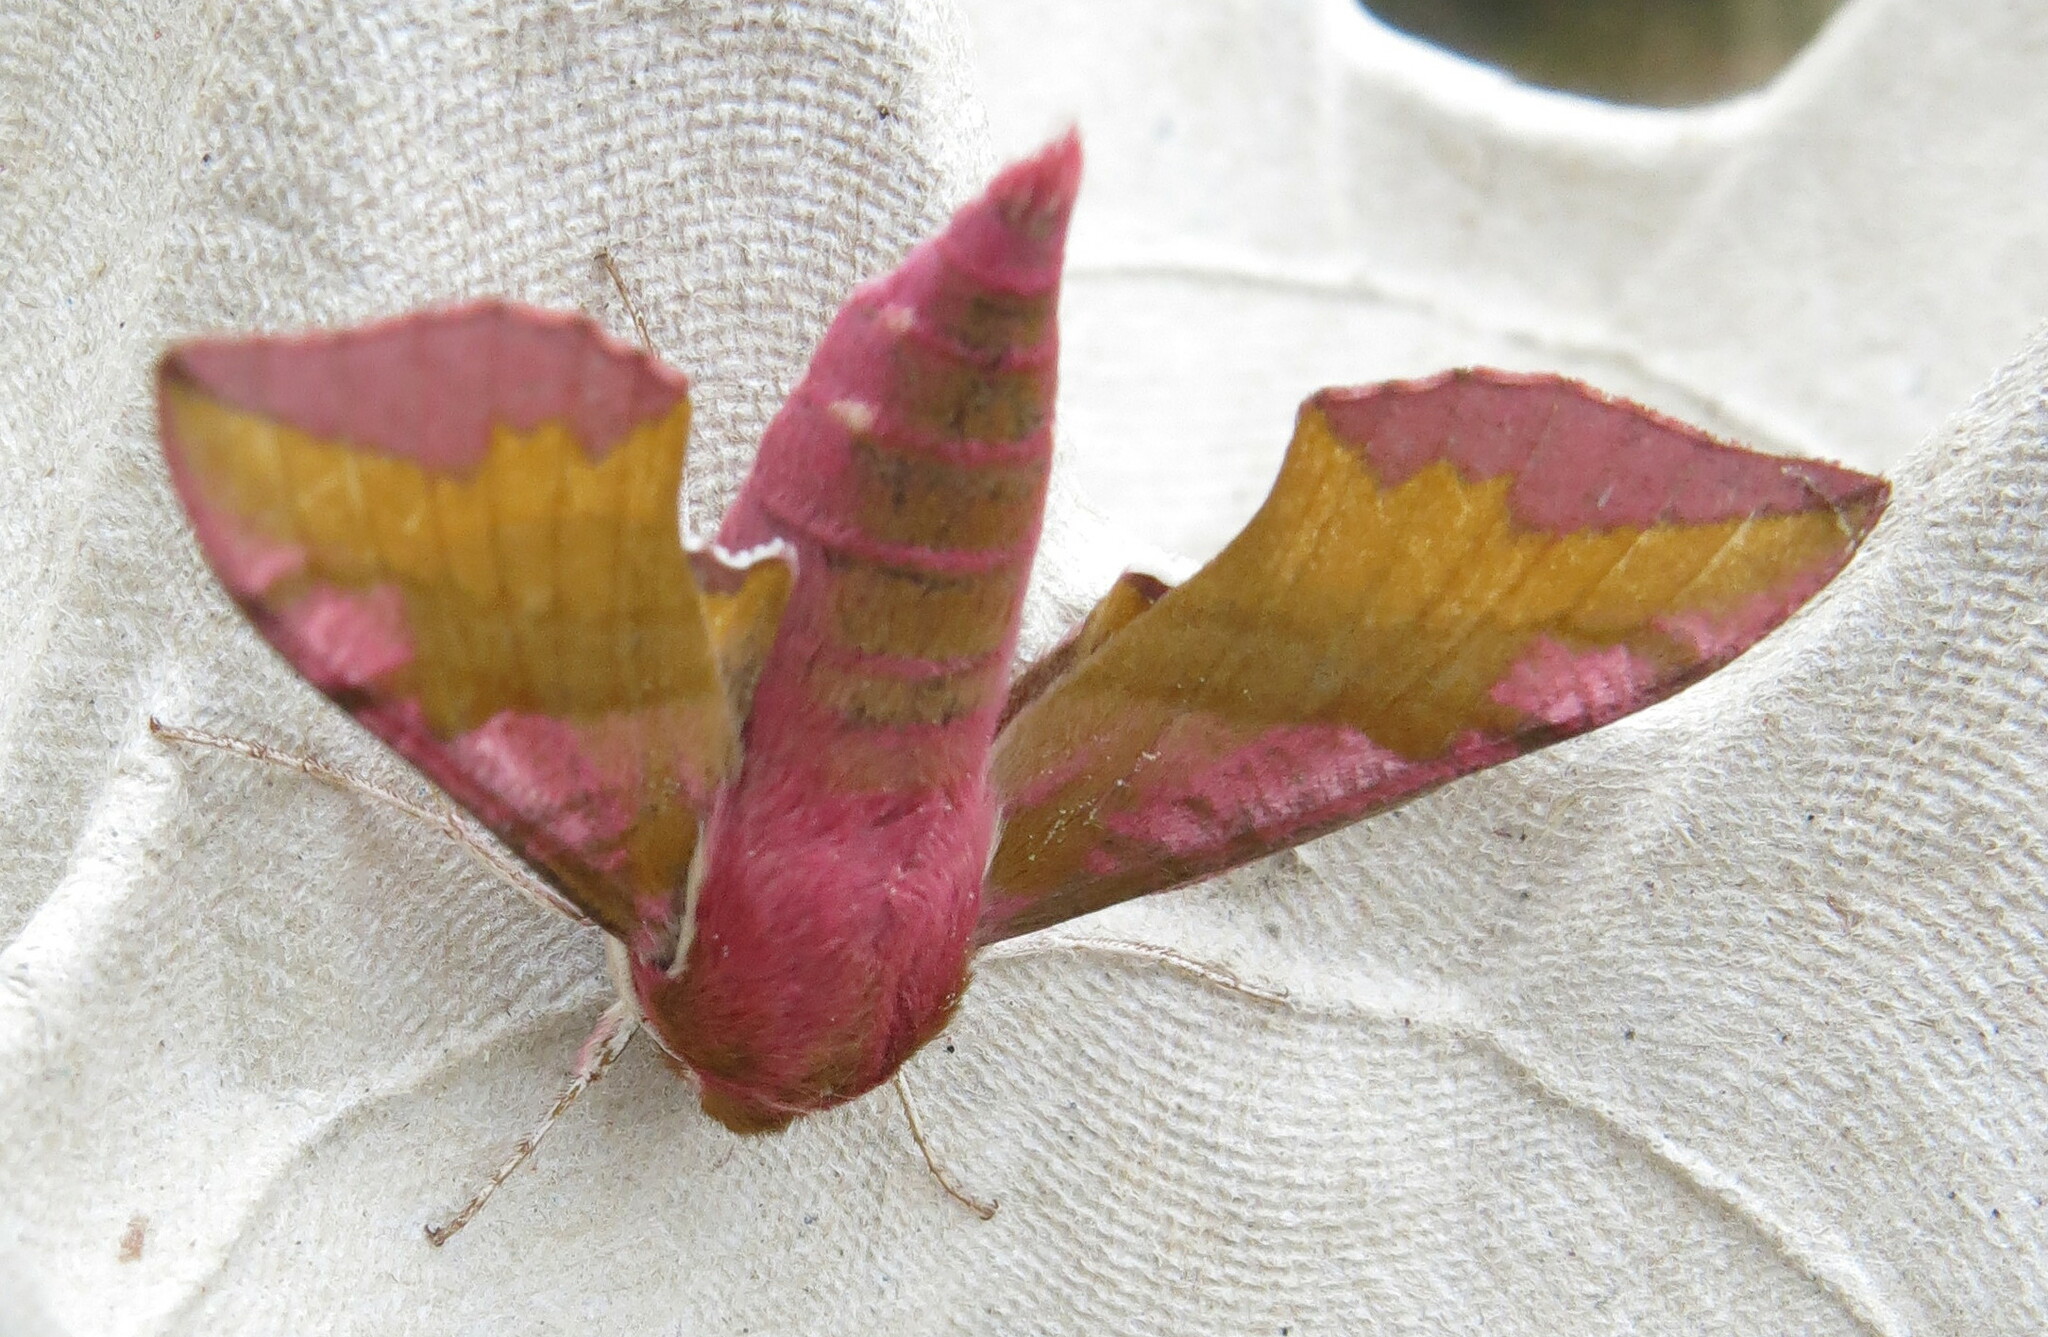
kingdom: Animalia
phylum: Arthropoda
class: Insecta
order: Lepidoptera
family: Sphingidae
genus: Deilephila
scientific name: Deilephila porcellus
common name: Small elephant hawk-moth
